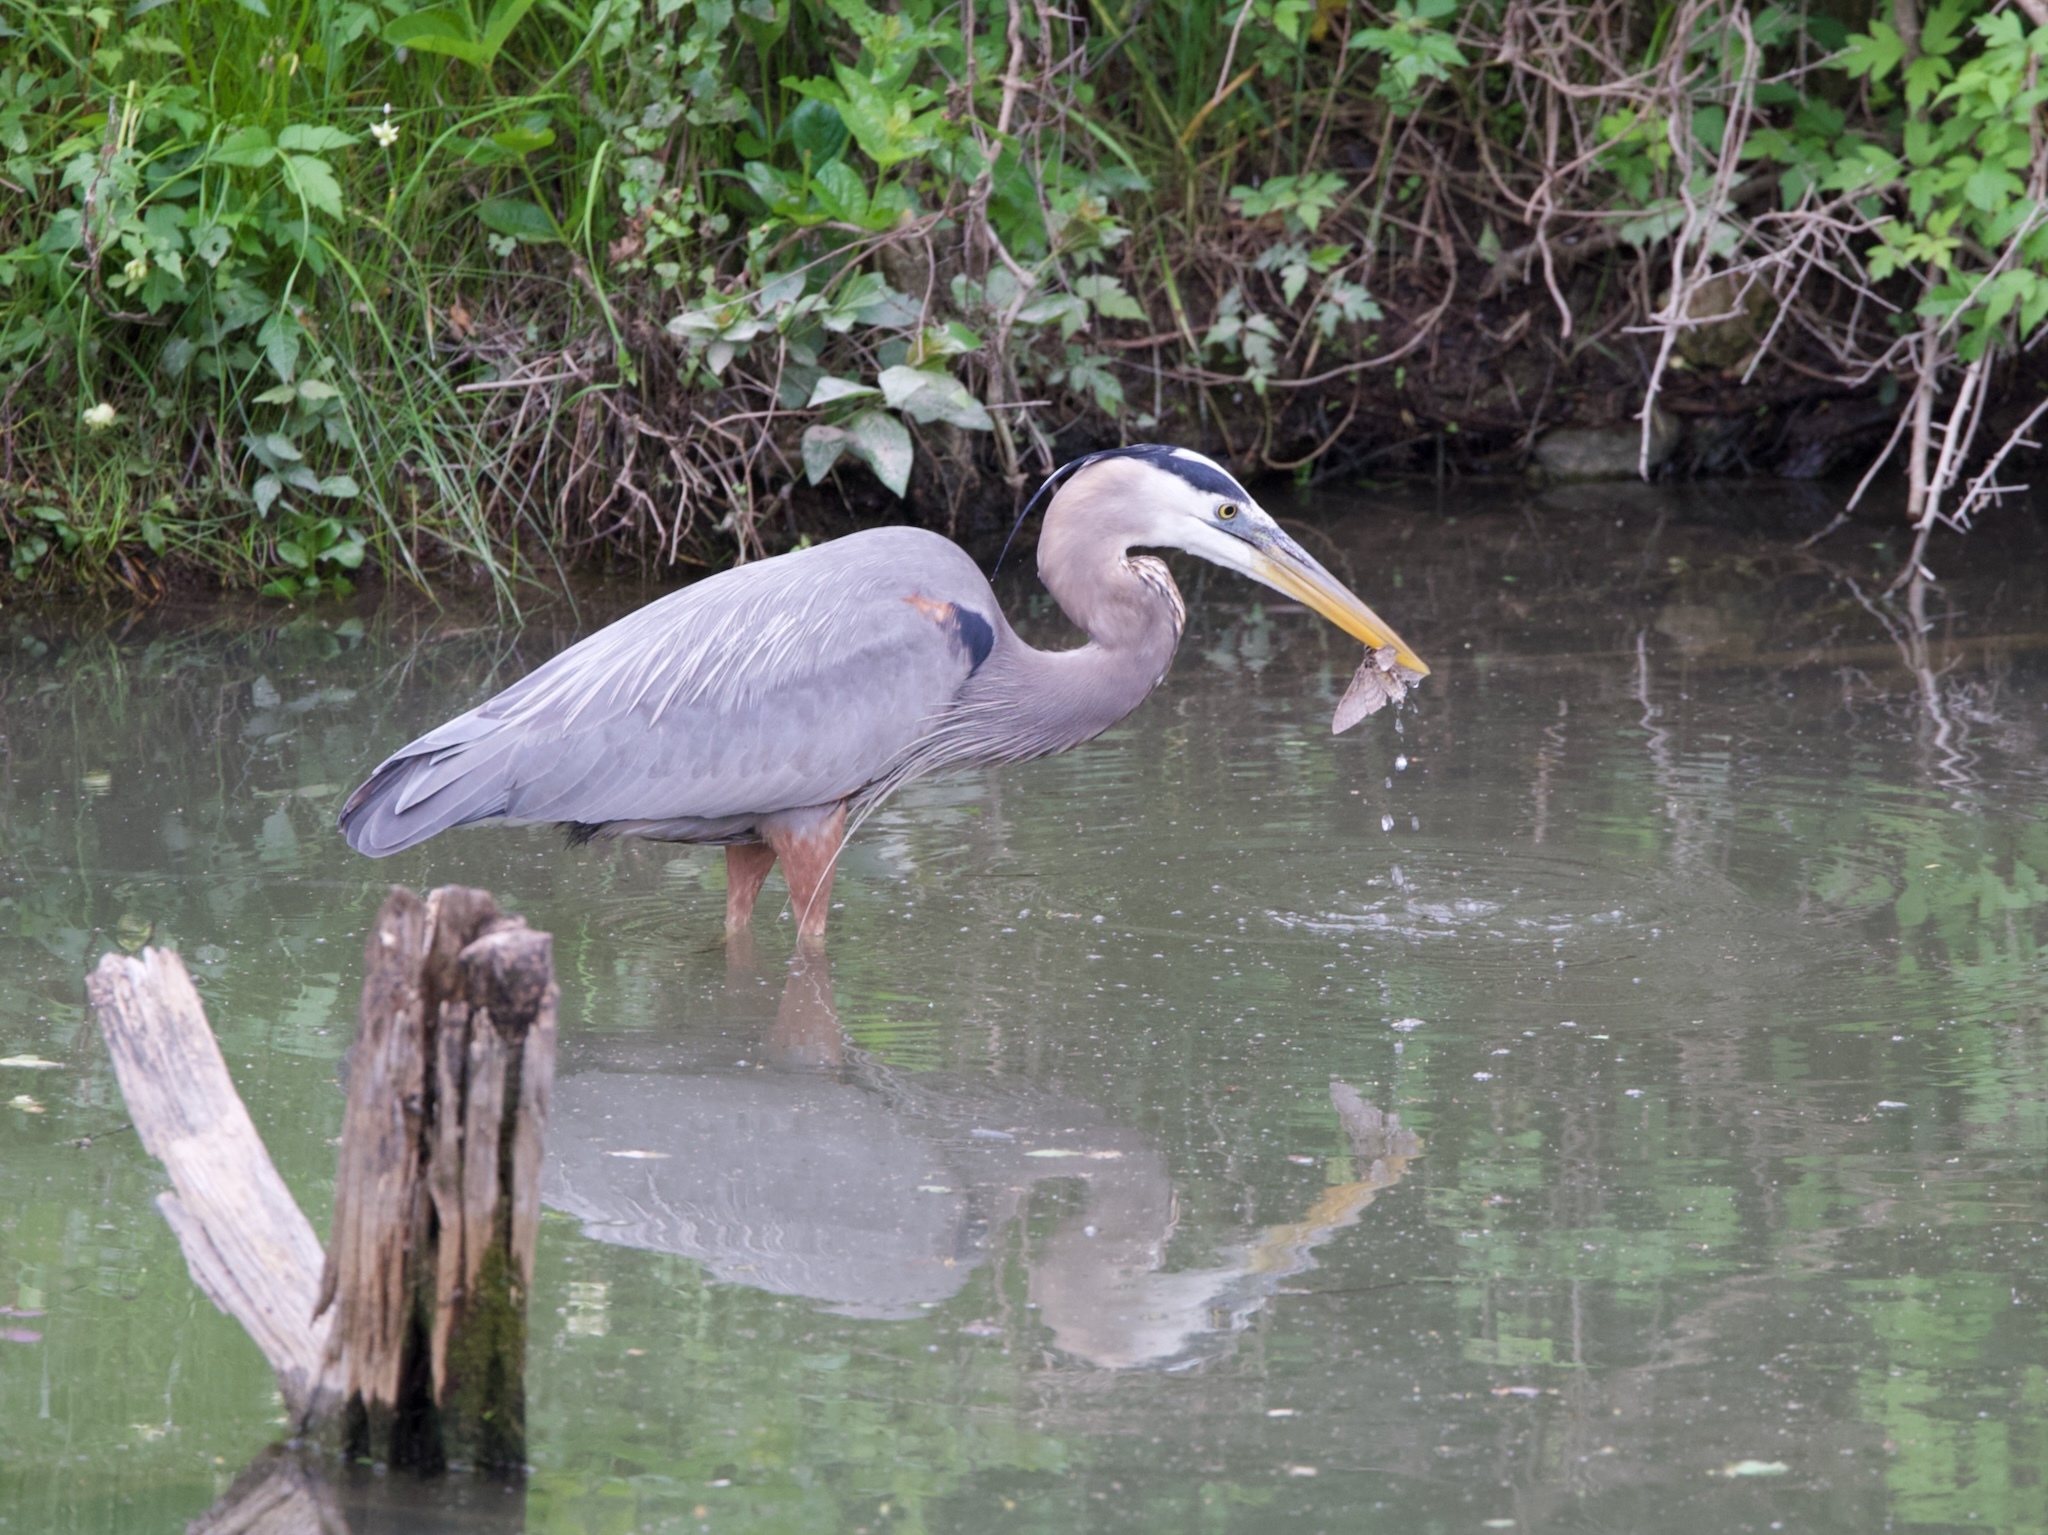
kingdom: Animalia
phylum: Chordata
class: Aves
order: Pelecaniformes
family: Ardeidae
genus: Ardea
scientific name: Ardea herodias
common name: Great blue heron
